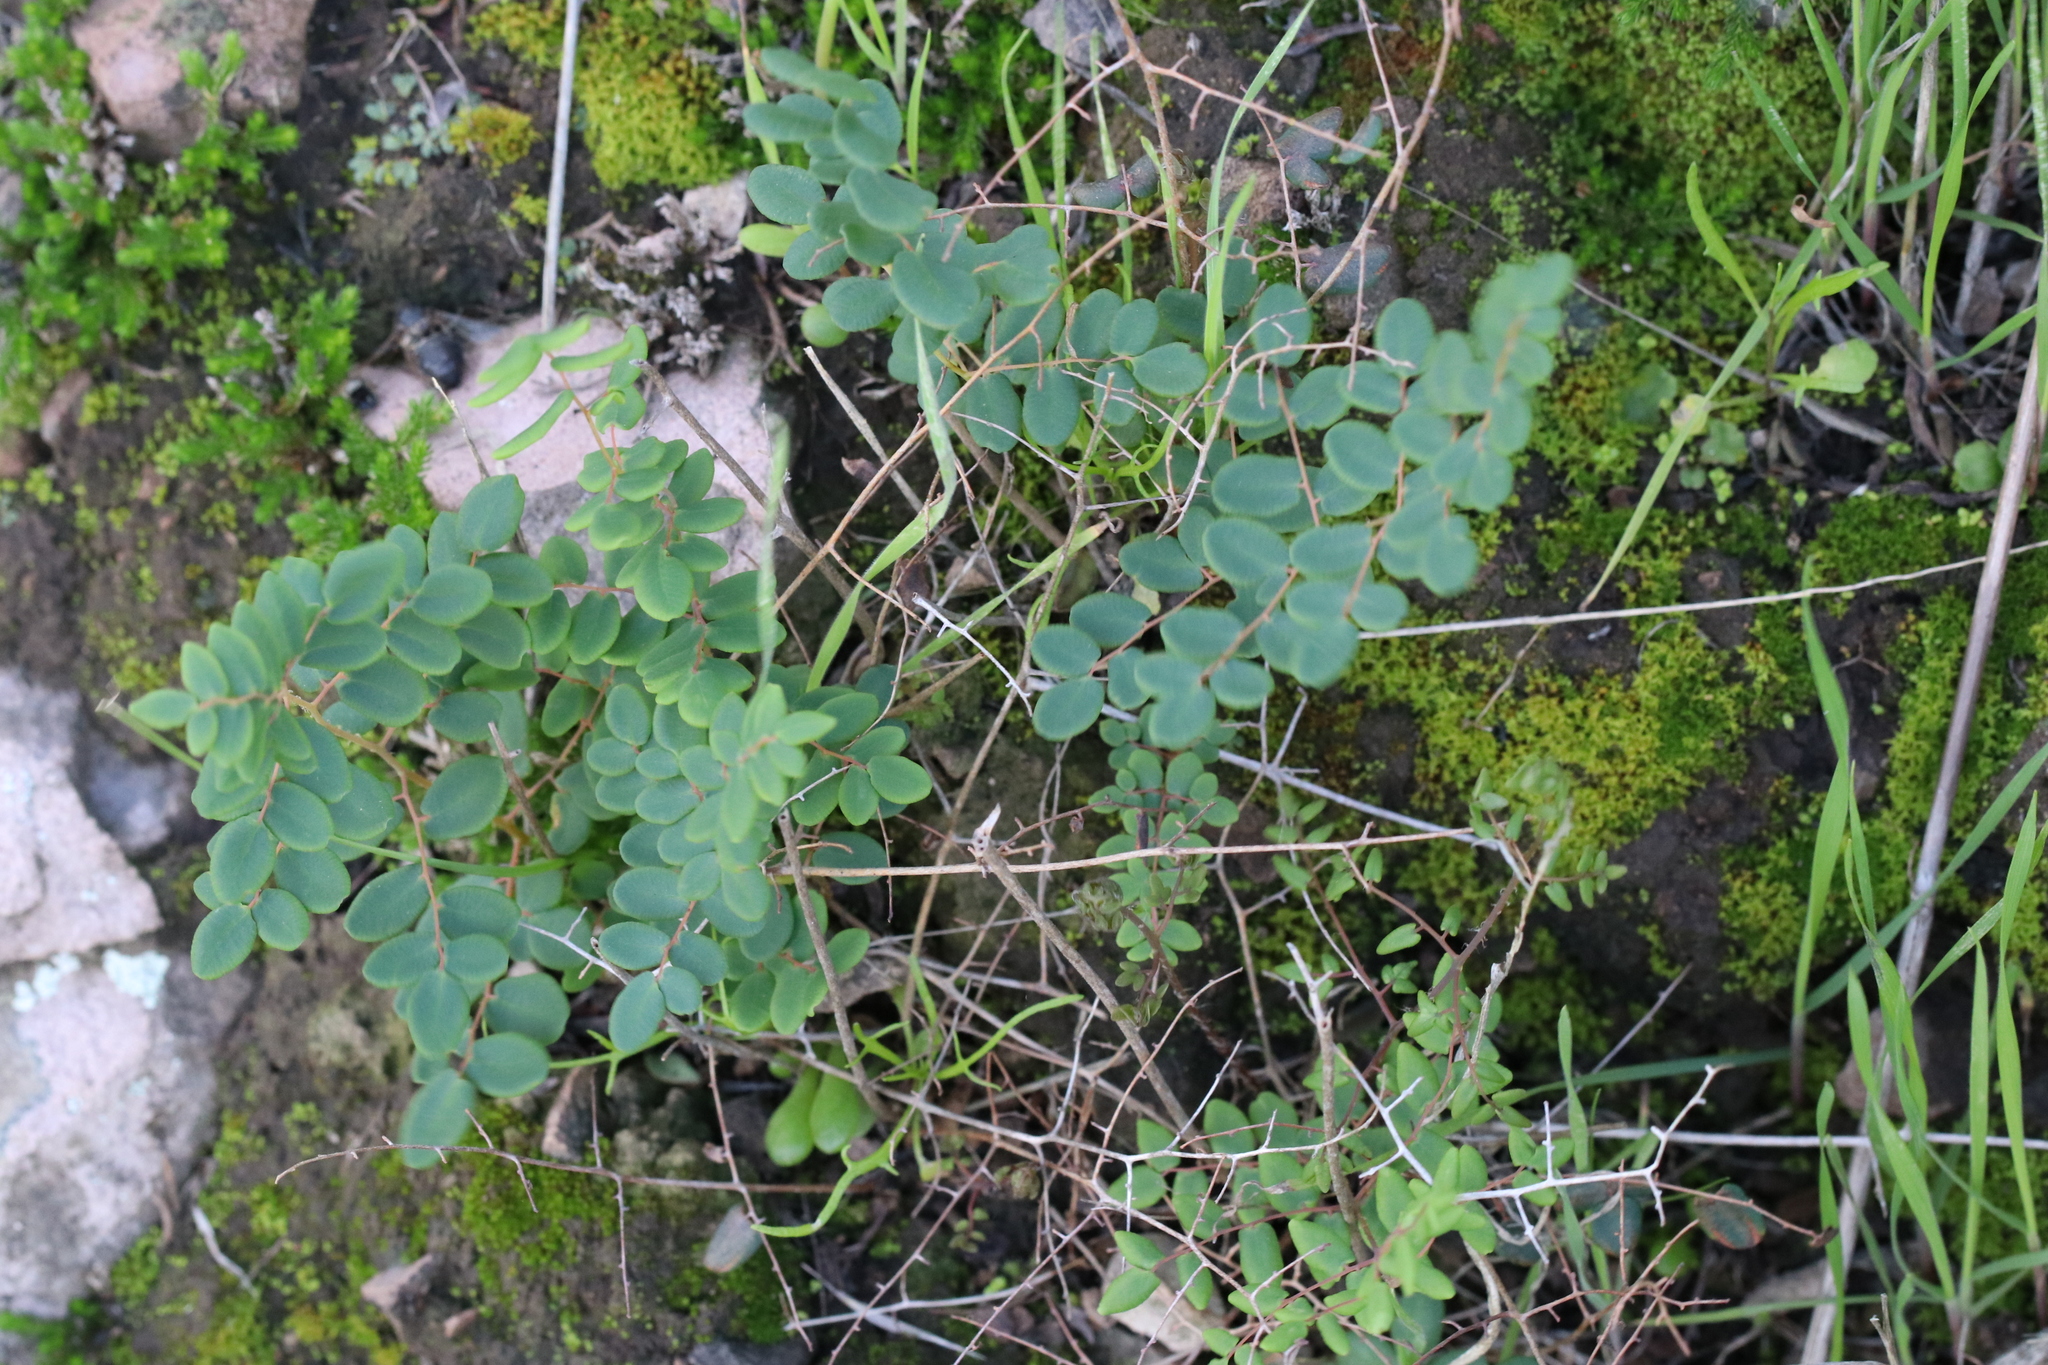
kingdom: Plantae
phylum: Tracheophyta
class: Polypodiopsida
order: Polypodiales
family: Pteridaceae
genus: Pellaea
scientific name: Pellaea andromedifolia
